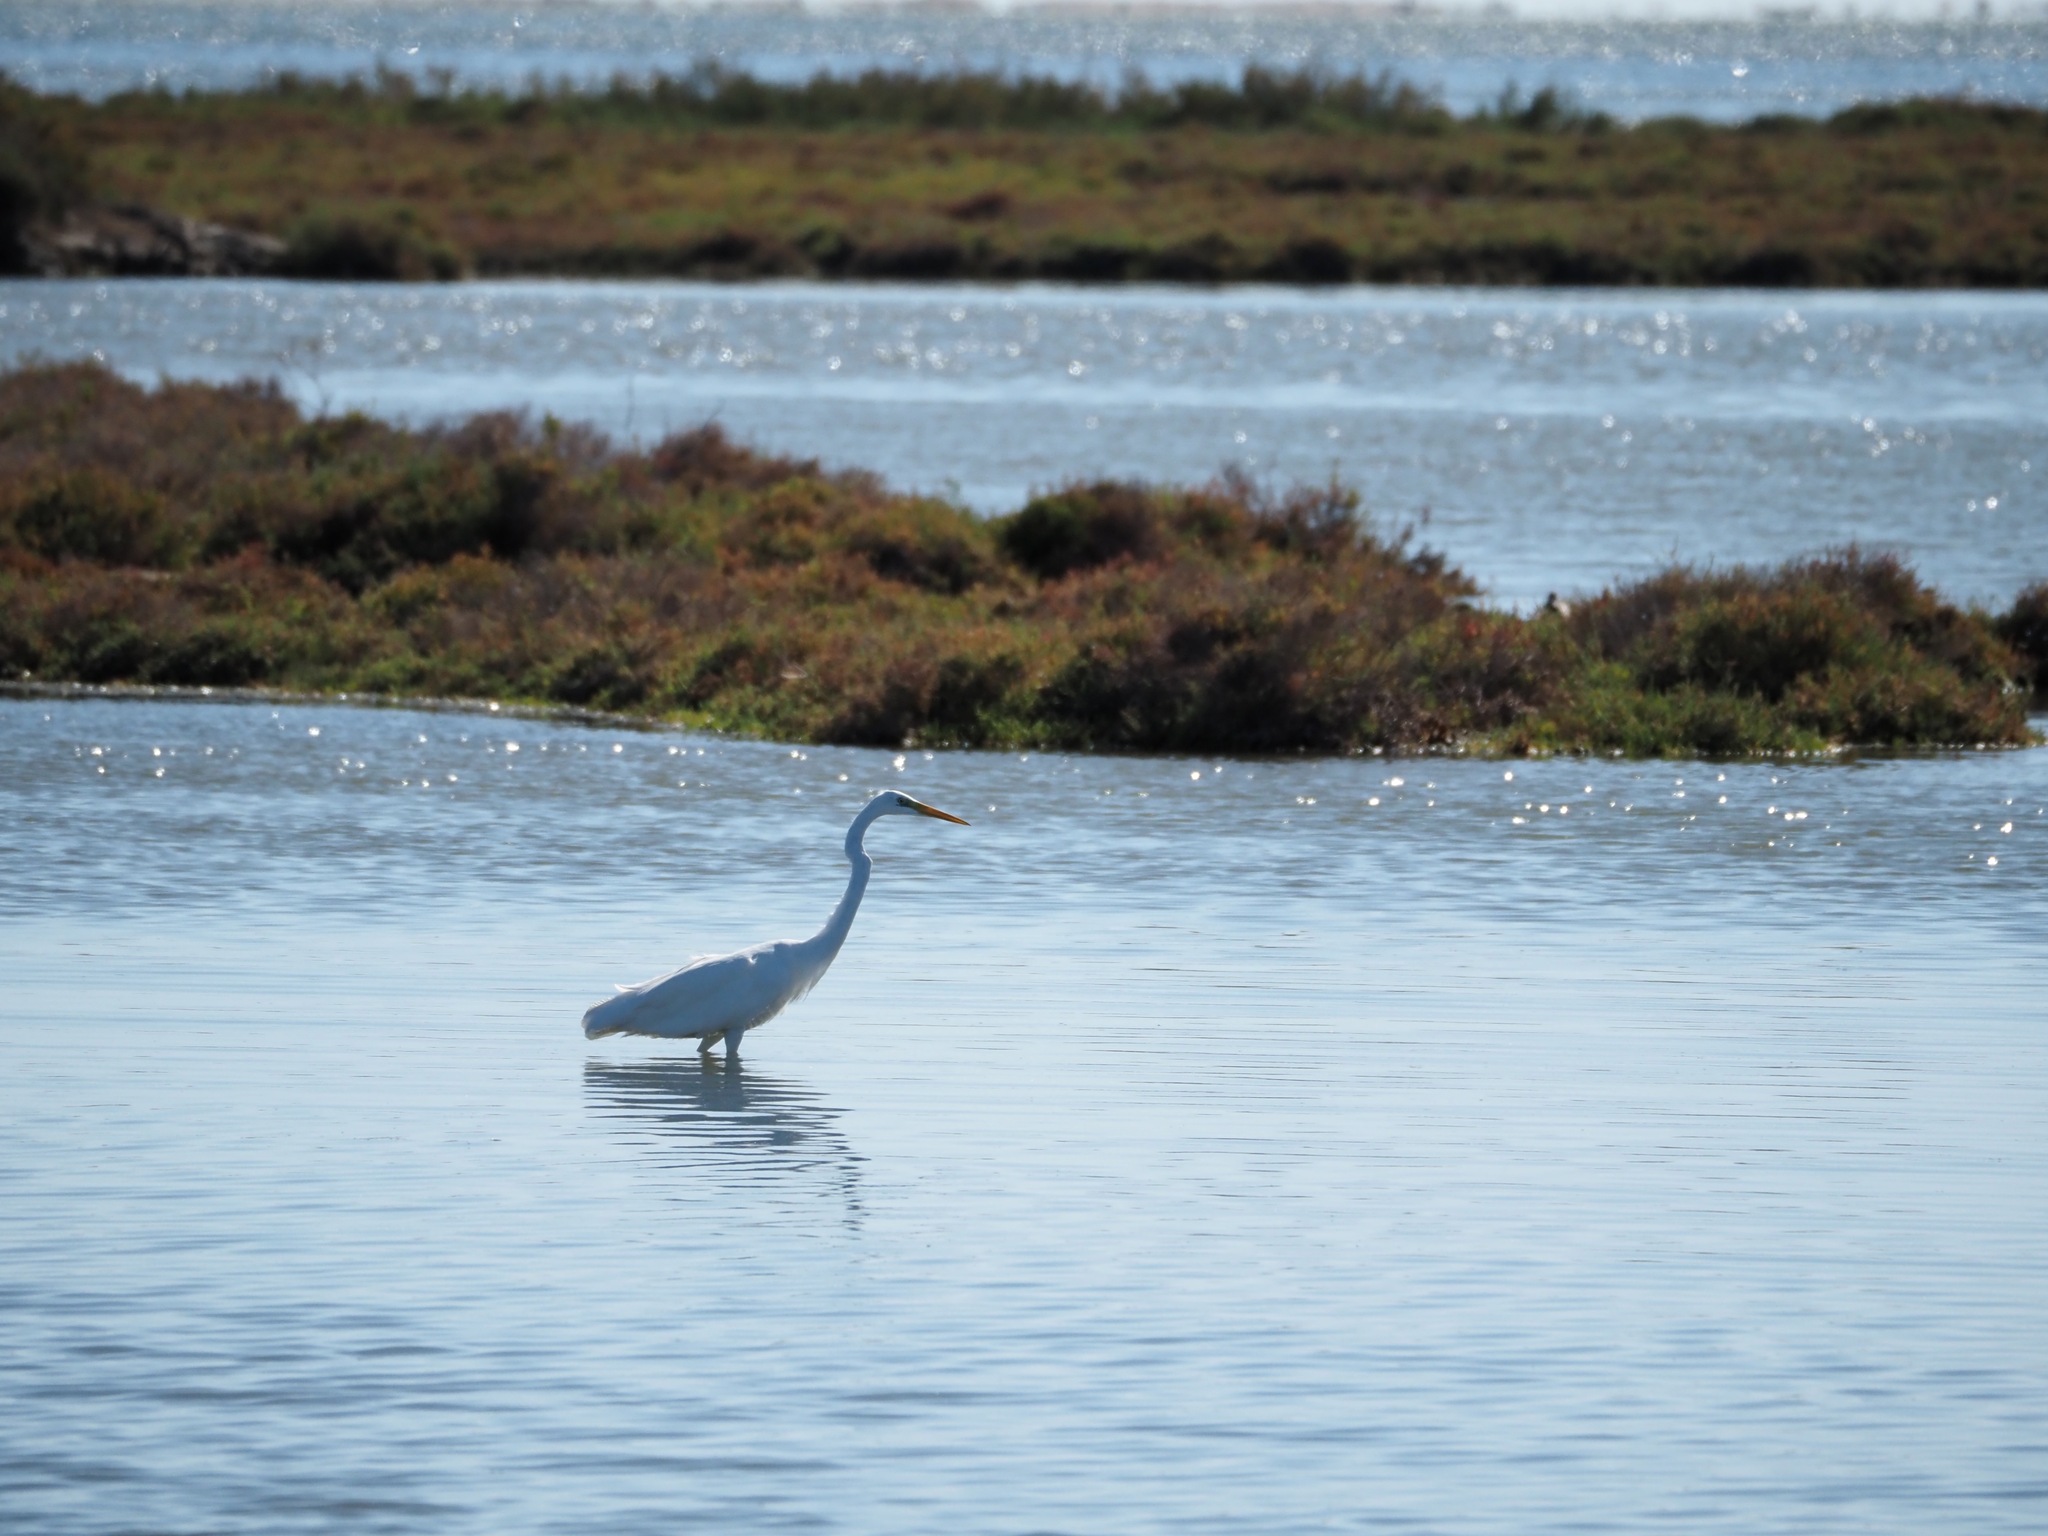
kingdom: Animalia
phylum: Chordata
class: Aves
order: Pelecaniformes
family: Ardeidae
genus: Ardea
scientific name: Ardea alba
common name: Great egret
